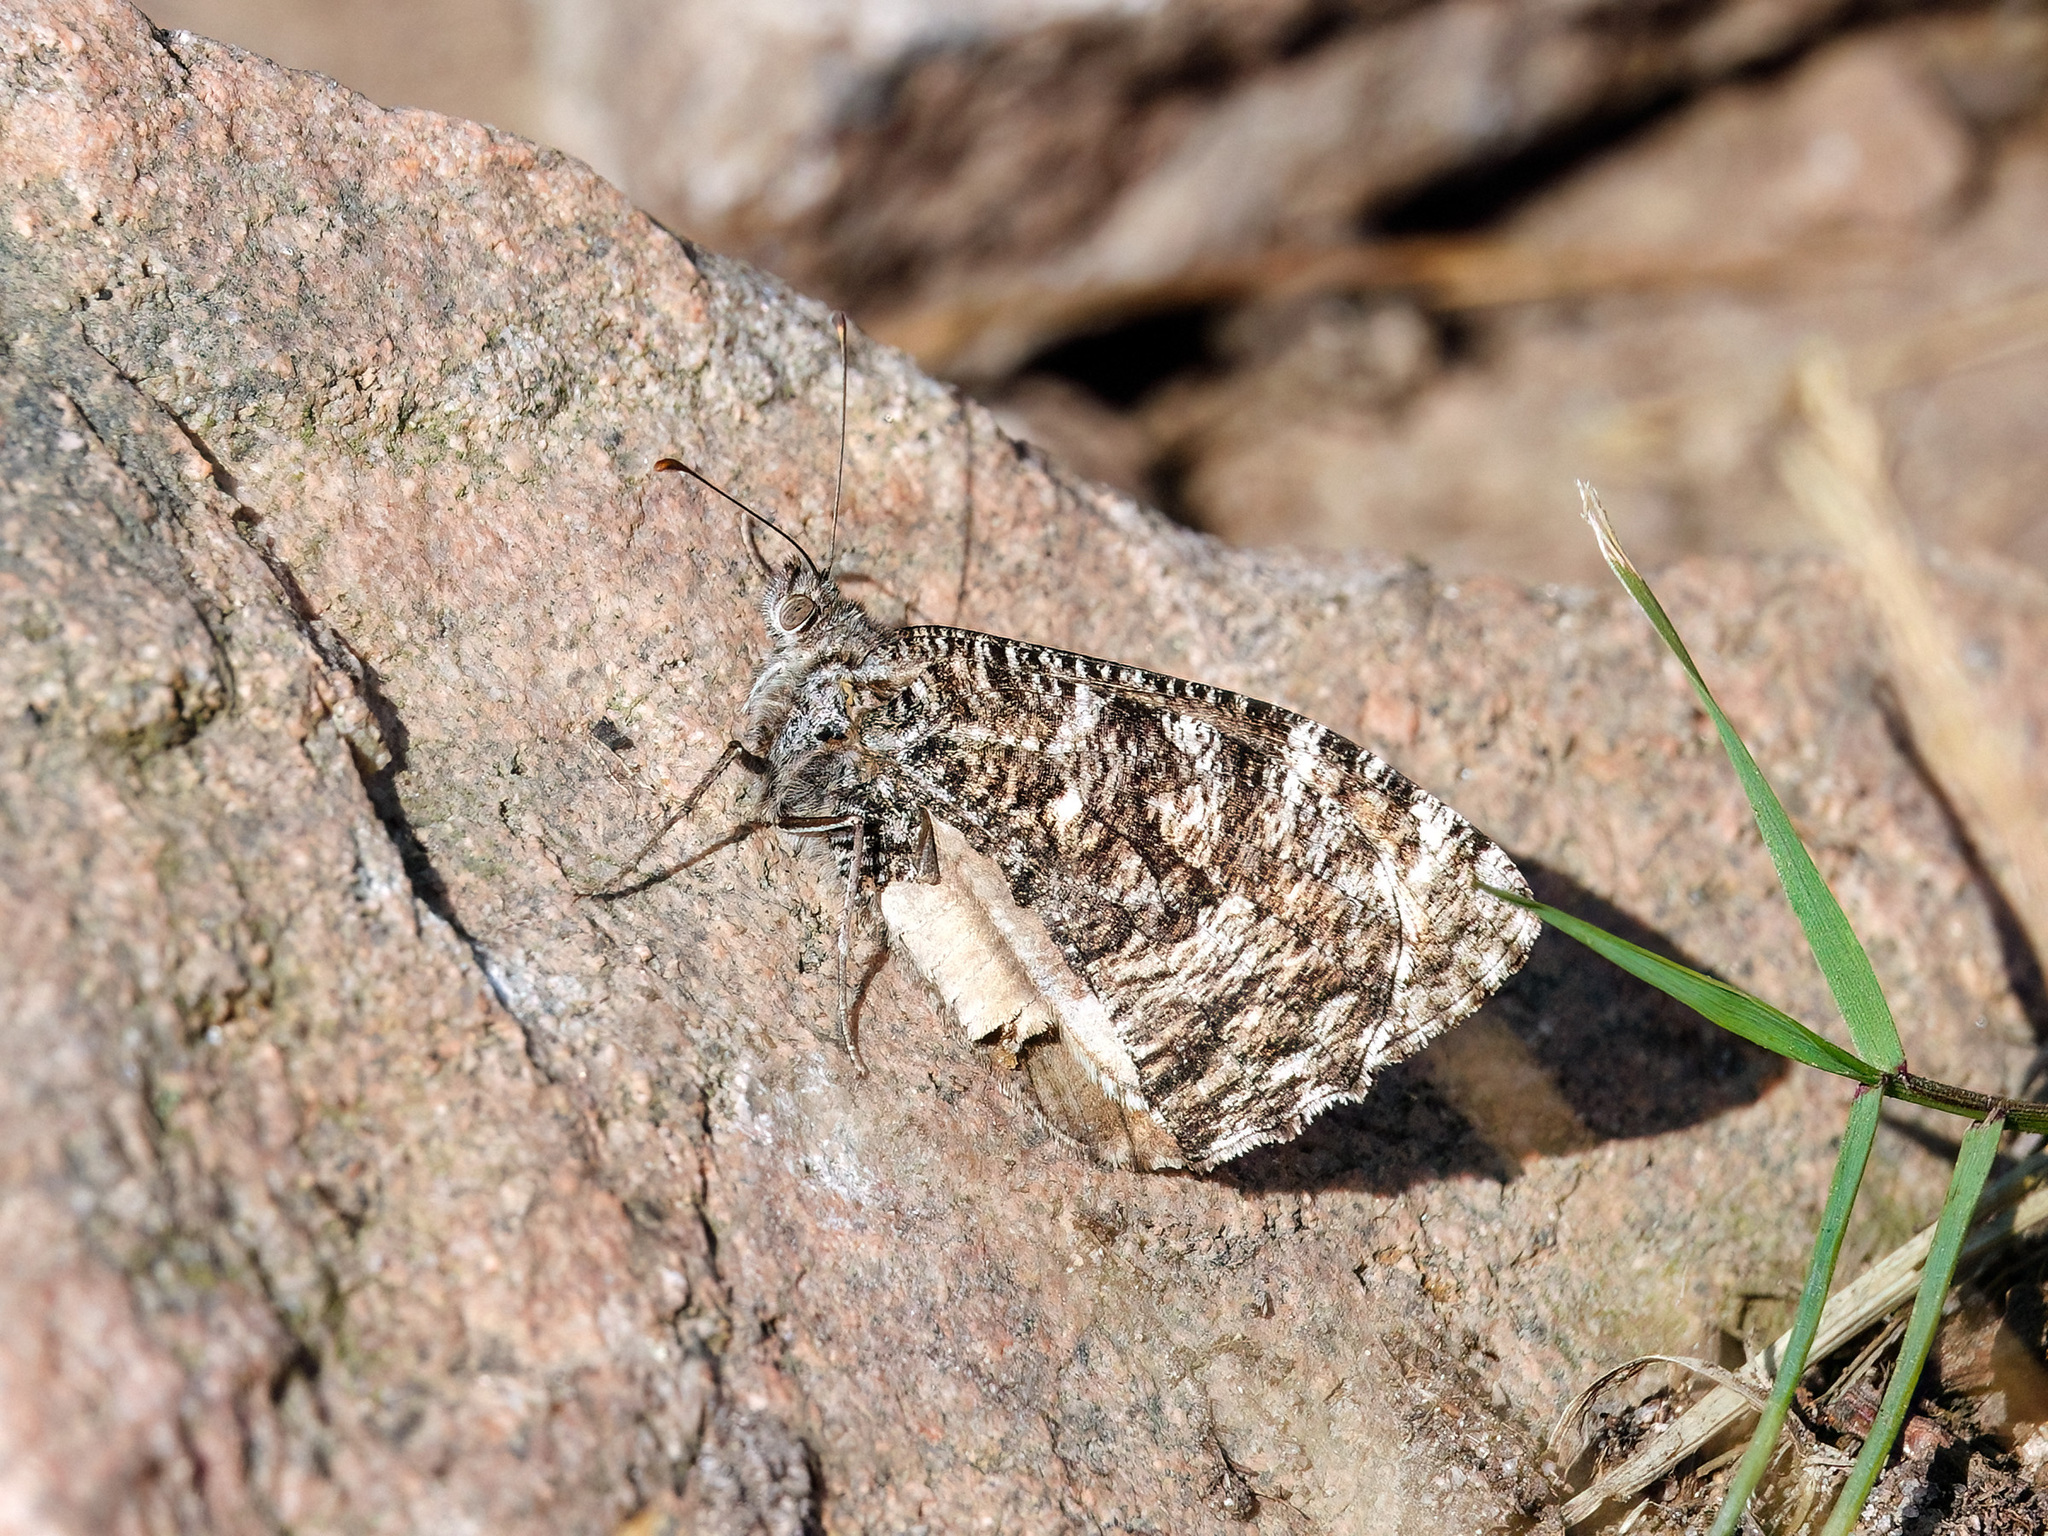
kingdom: Animalia
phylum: Arthropoda
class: Insecta
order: Lepidoptera
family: Nymphalidae
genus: Hipparchia
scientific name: Hipparchia semele
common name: Grayling
